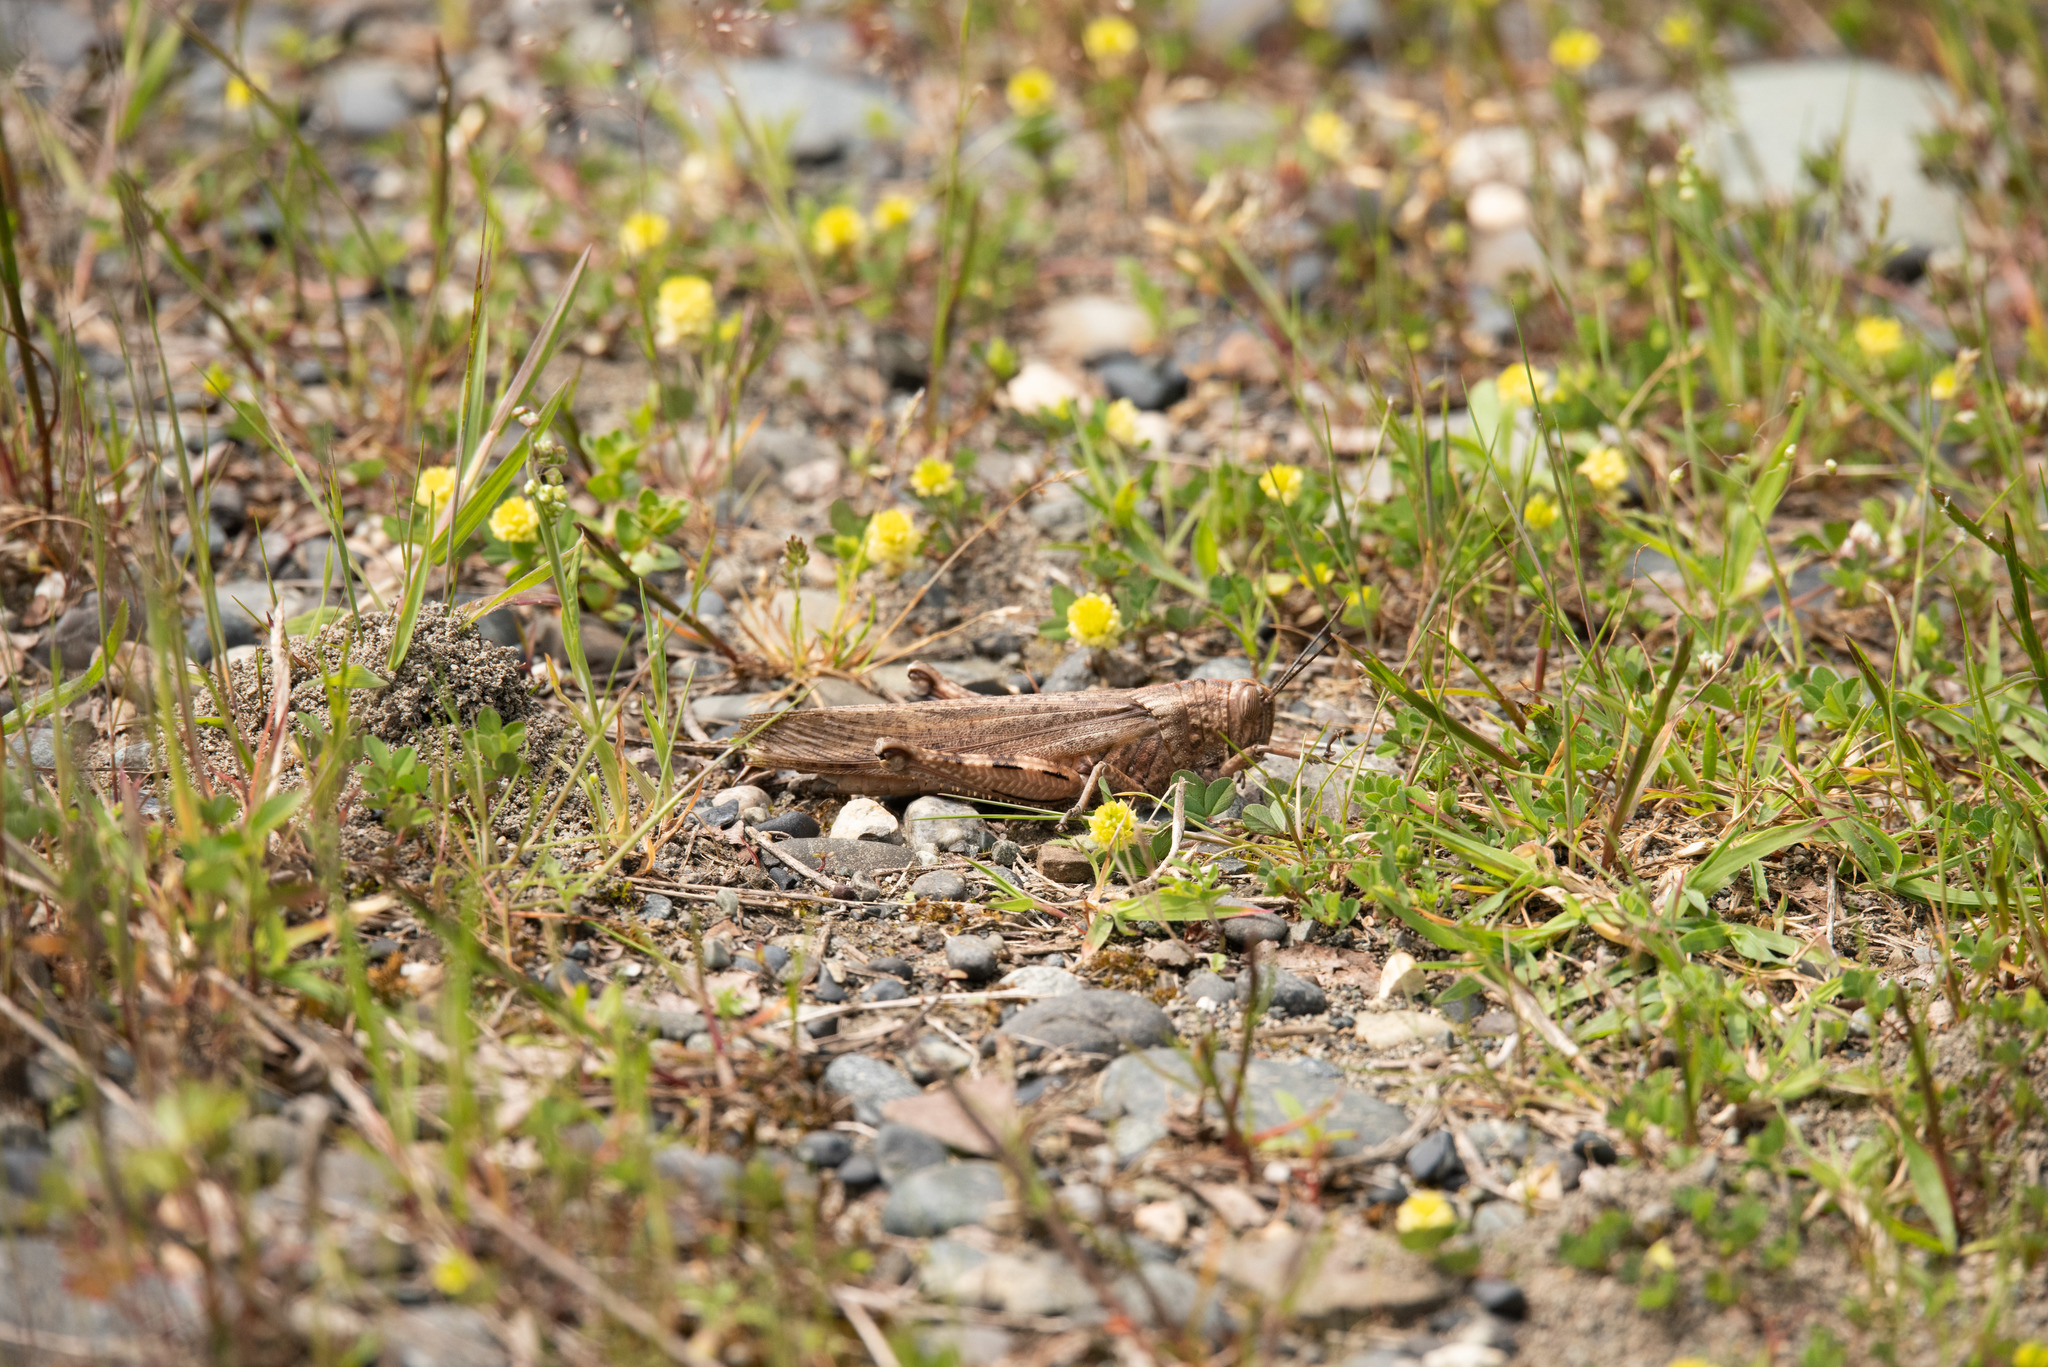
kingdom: Animalia
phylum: Arthropoda
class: Insecta
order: Orthoptera
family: Acrididae
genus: Anacridium
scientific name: Anacridium aegyptium
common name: Egyptian grasshopper
